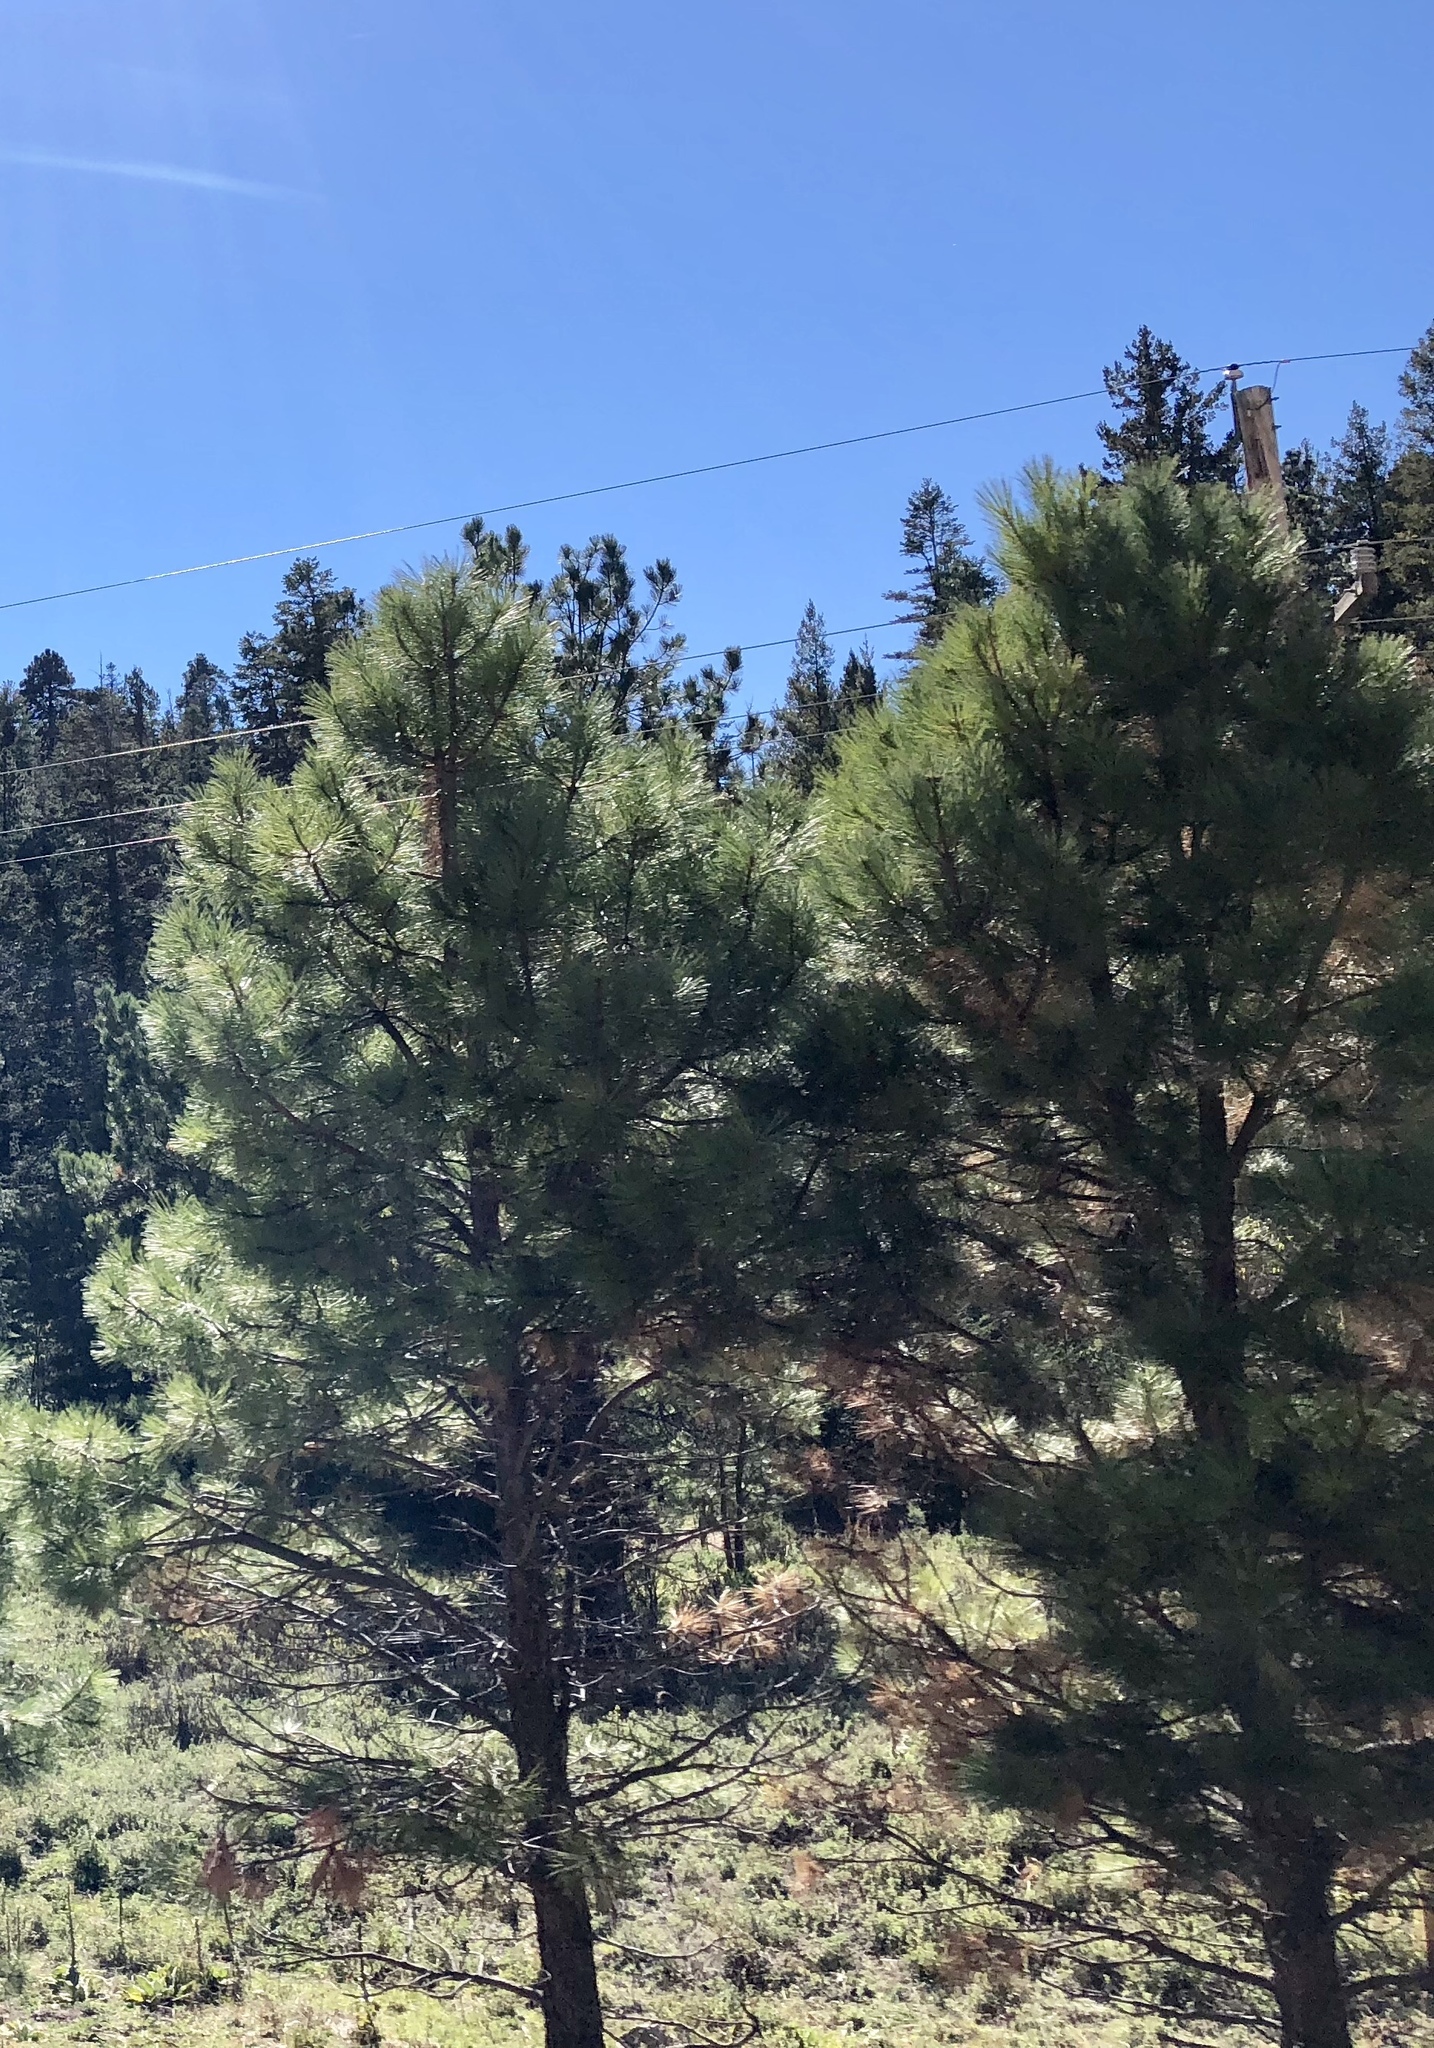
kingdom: Plantae
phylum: Tracheophyta
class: Pinopsida
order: Pinales
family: Pinaceae
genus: Pinus
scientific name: Pinus ponderosa
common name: Western yellow-pine
